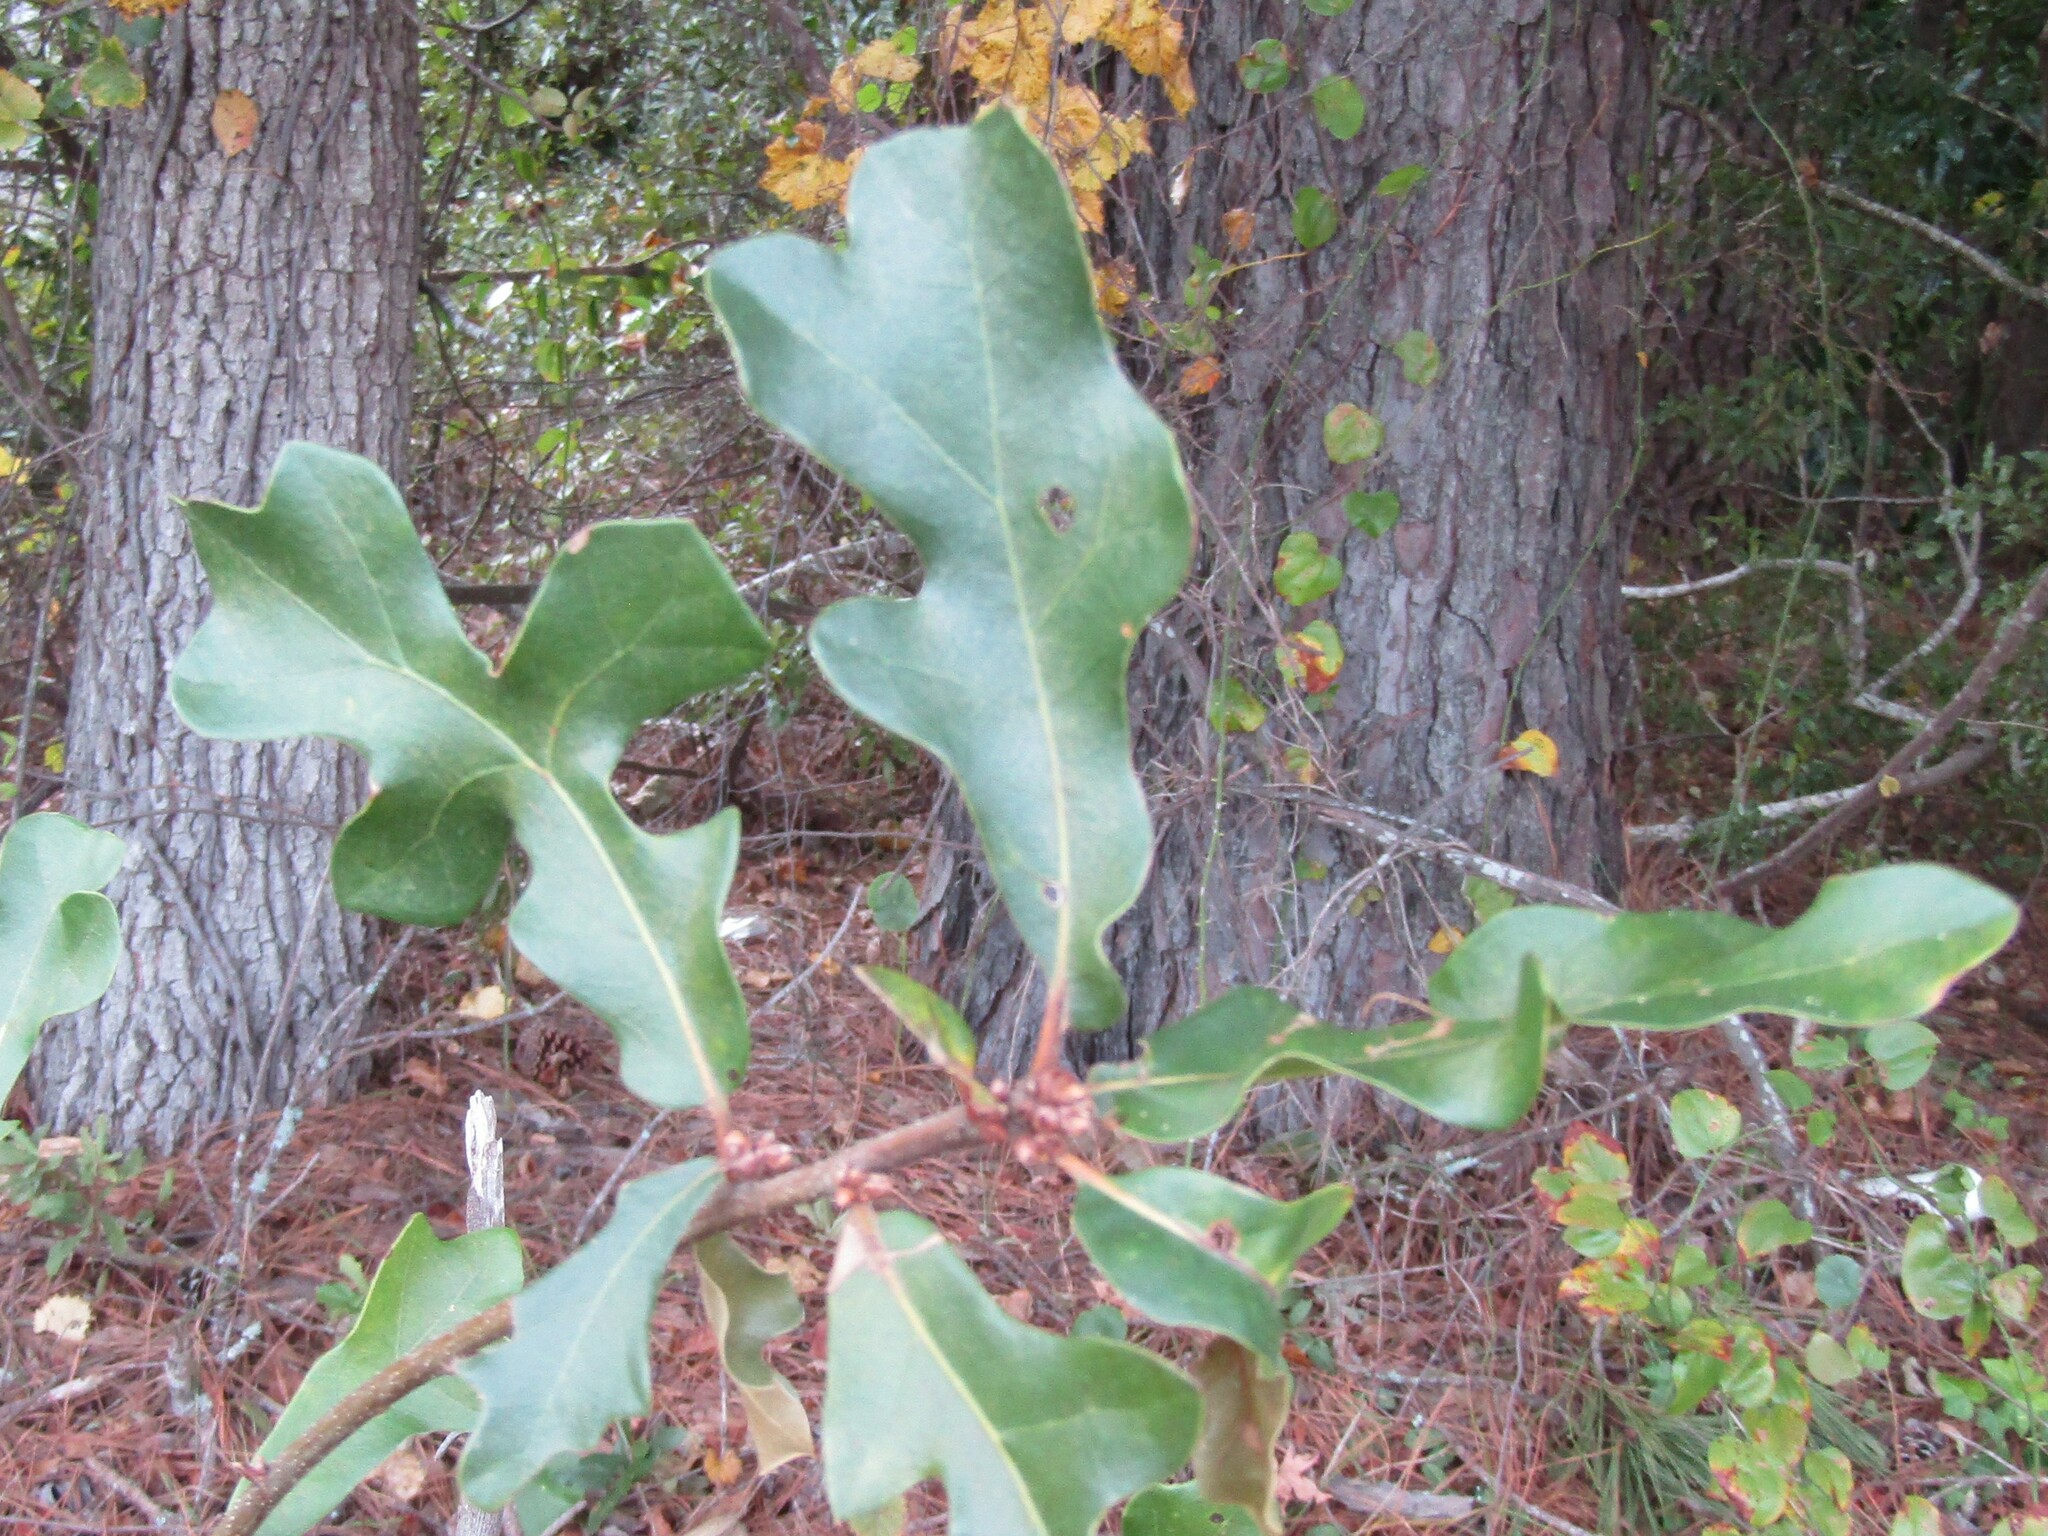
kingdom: Plantae
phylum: Tracheophyta
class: Magnoliopsida
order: Fagales
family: Fagaceae
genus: Quercus
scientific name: Quercus stellata
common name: Post oak
